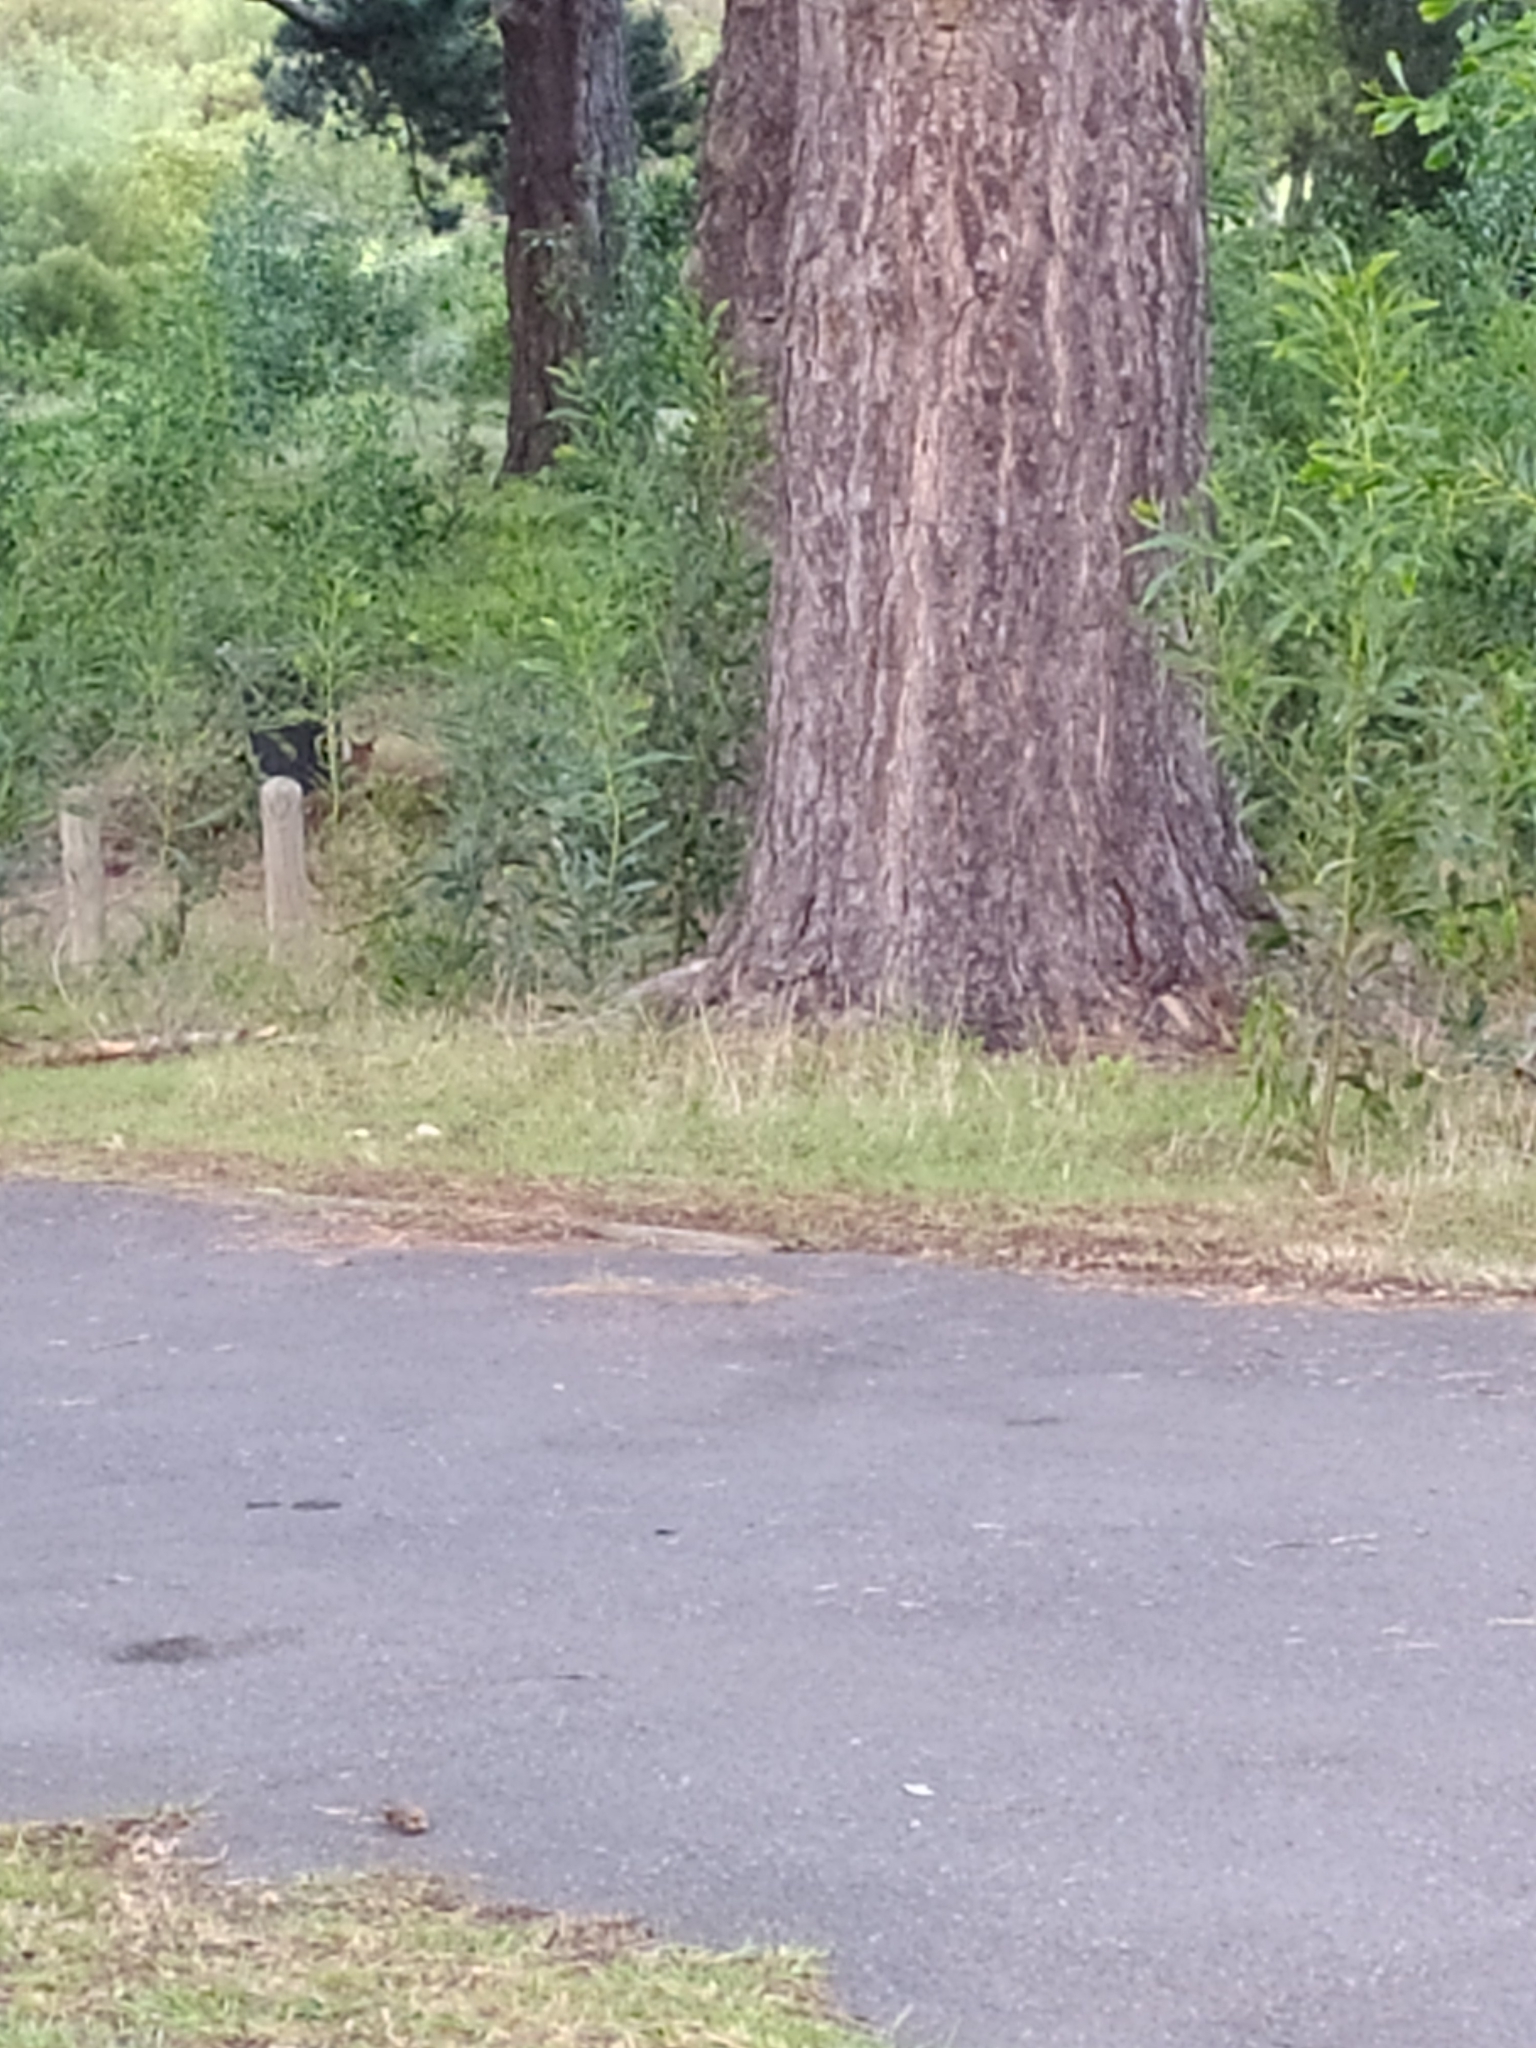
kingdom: Animalia
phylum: Chordata
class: Mammalia
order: Carnivora
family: Felidae
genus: Caracal
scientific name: Caracal caracal
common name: Caracal
